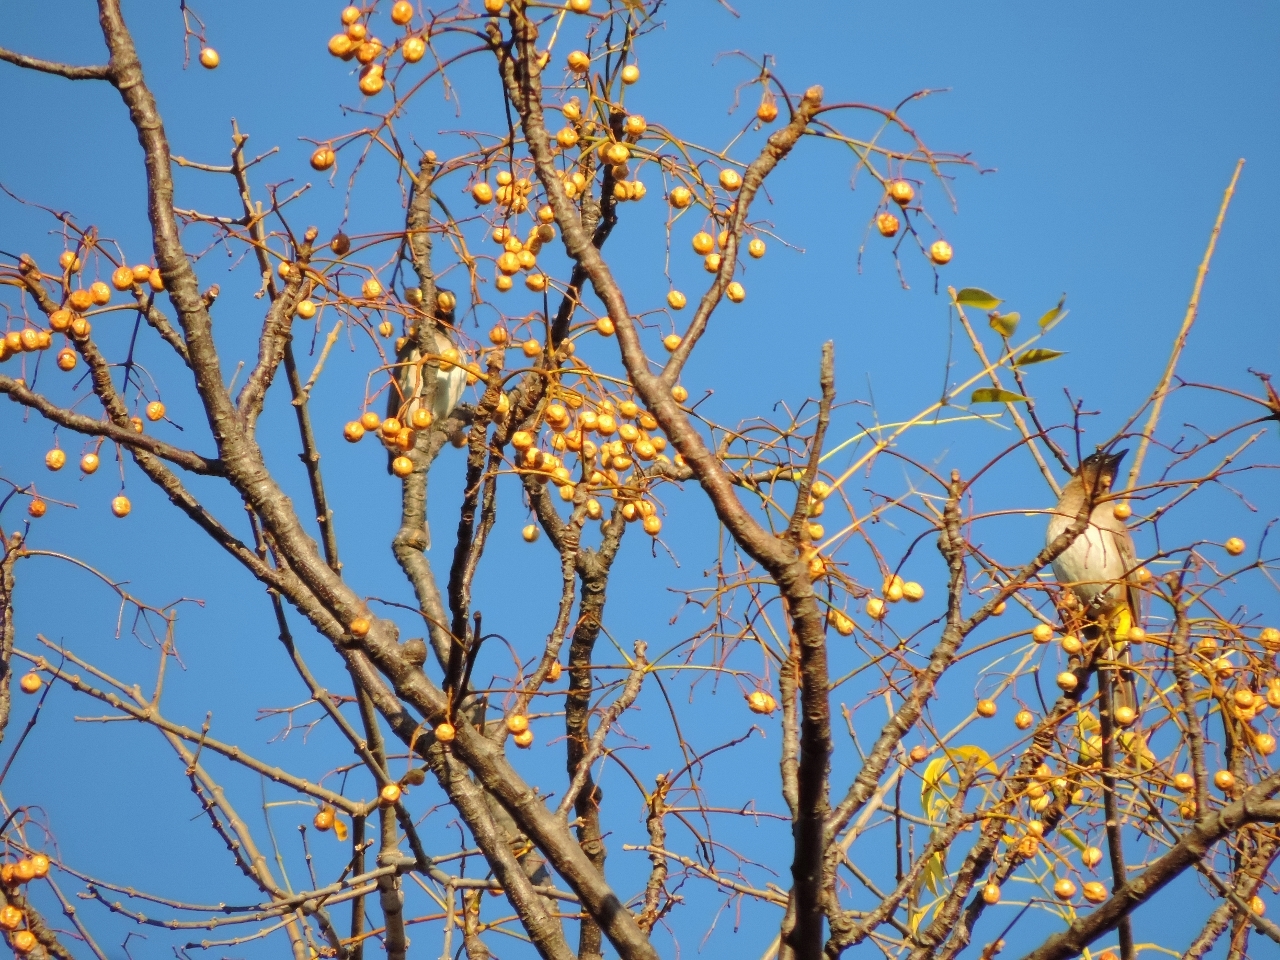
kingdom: Animalia
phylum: Chordata
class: Aves
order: Passeriformes
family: Pycnonotidae
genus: Pycnonotus
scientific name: Pycnonotus barbatus
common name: Common bulbul
